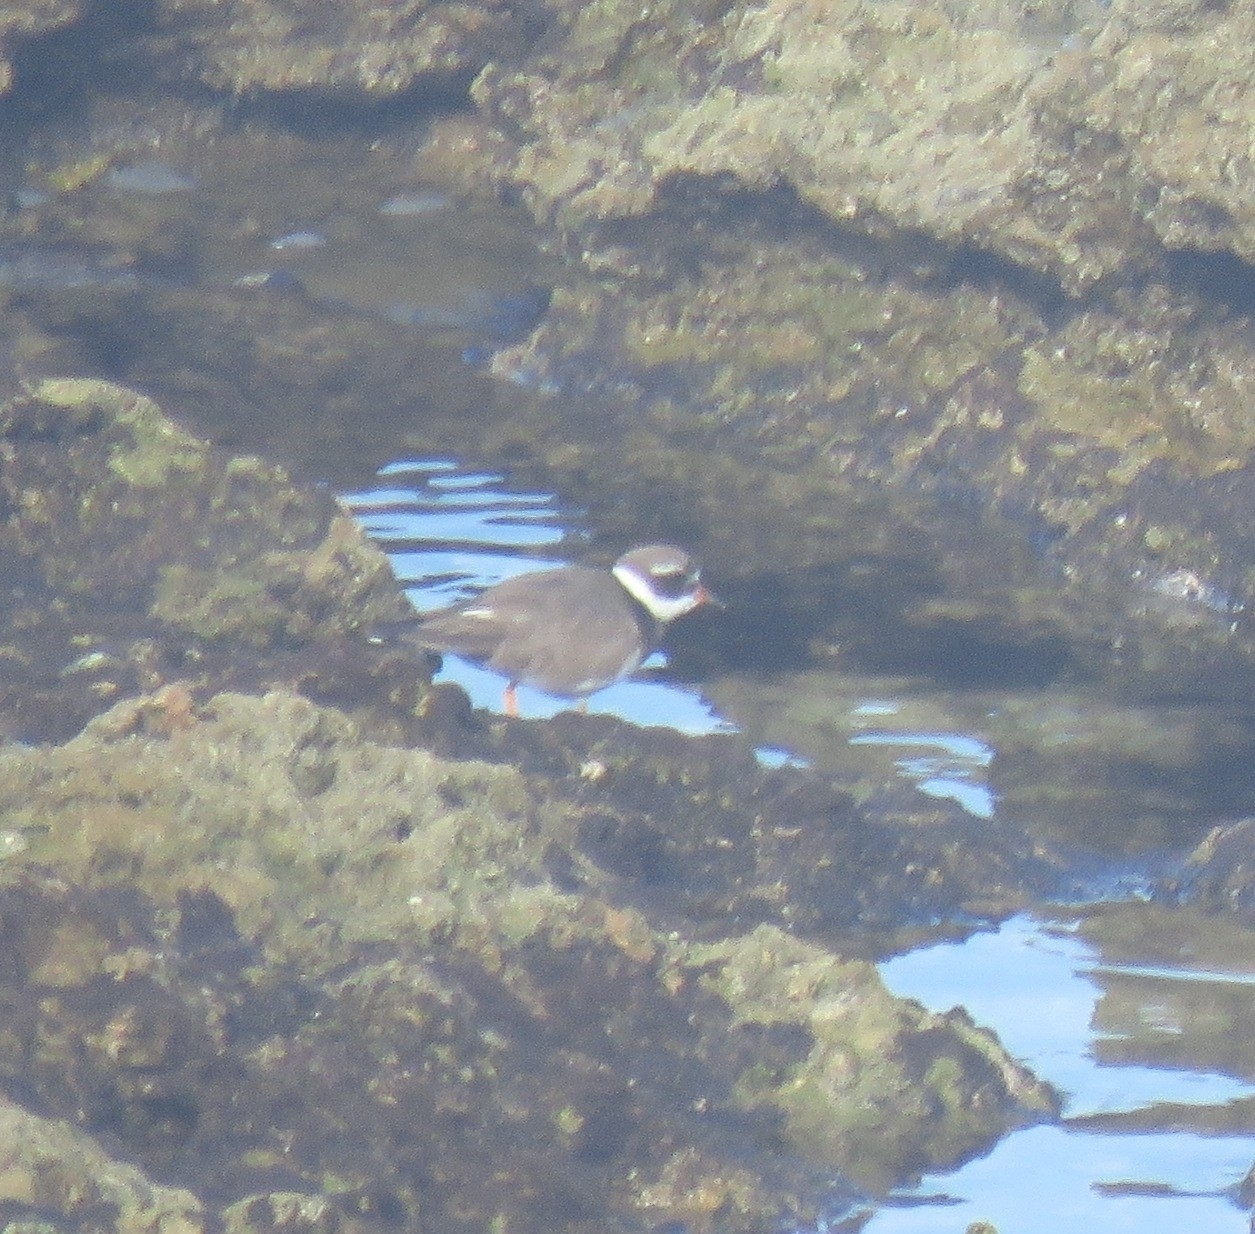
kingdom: Animalia
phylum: Chordata
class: Aves
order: Charadriiformes
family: Charadriidae
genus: Charadrius
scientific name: Charadrius hiaticula
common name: Common ringed plover
